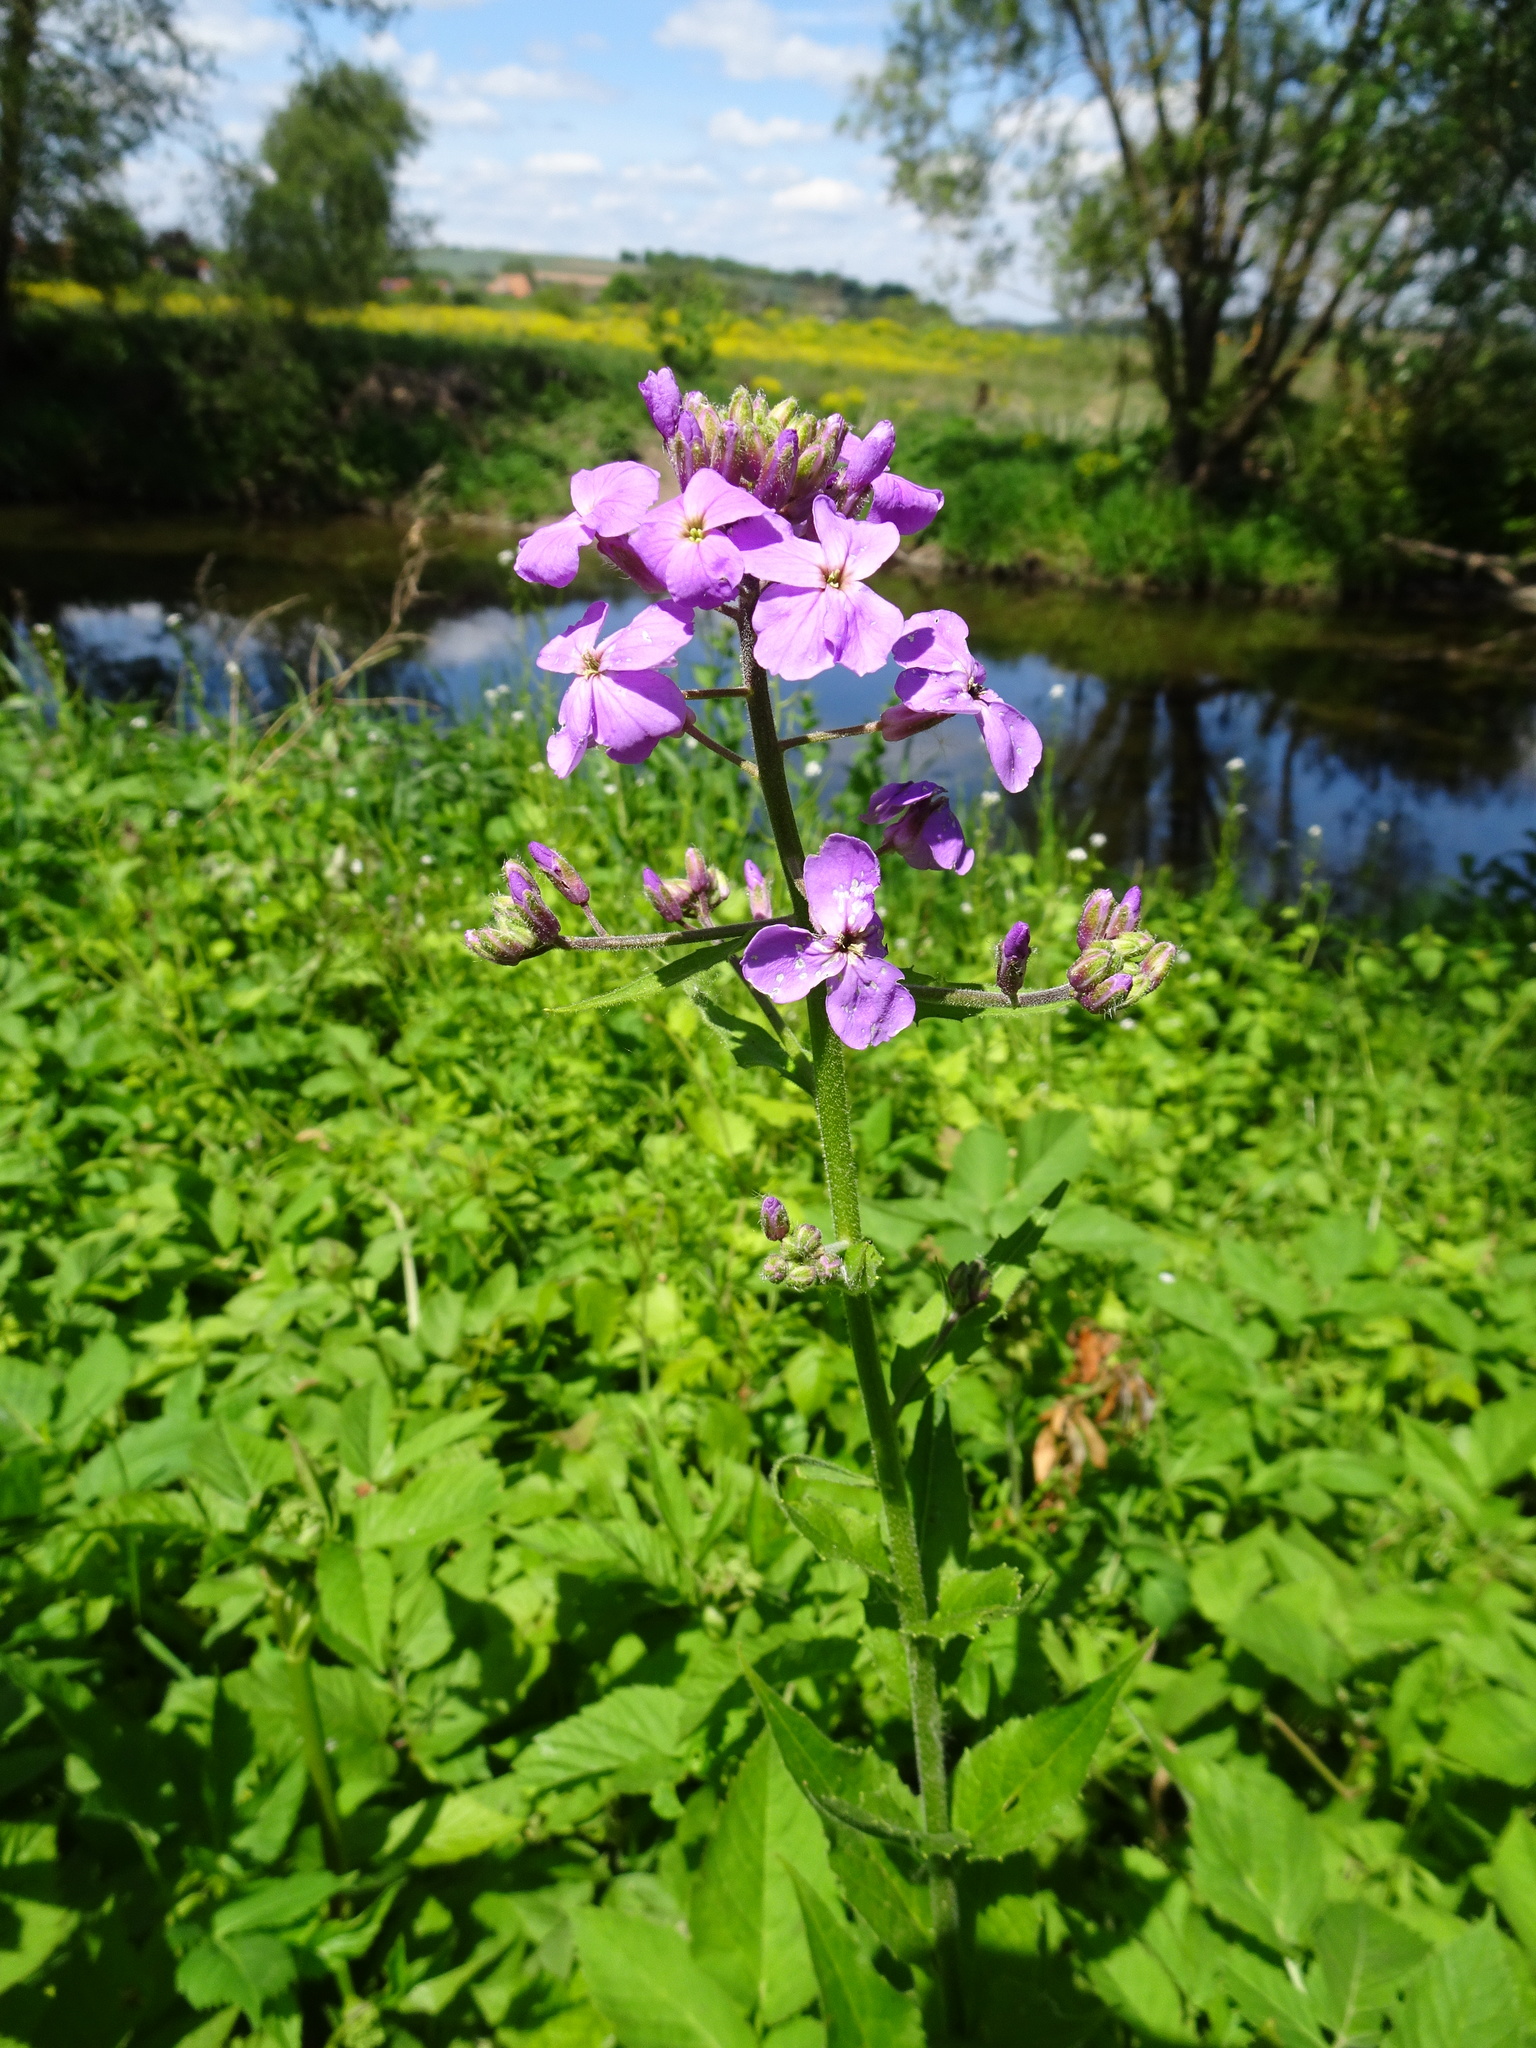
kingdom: Plantae
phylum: Tracheophyta
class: Magnoliopsida
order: Brassicales
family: Brassicaceae
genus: Hesperis
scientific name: Hesperis matronalis
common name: Dame's-violet
